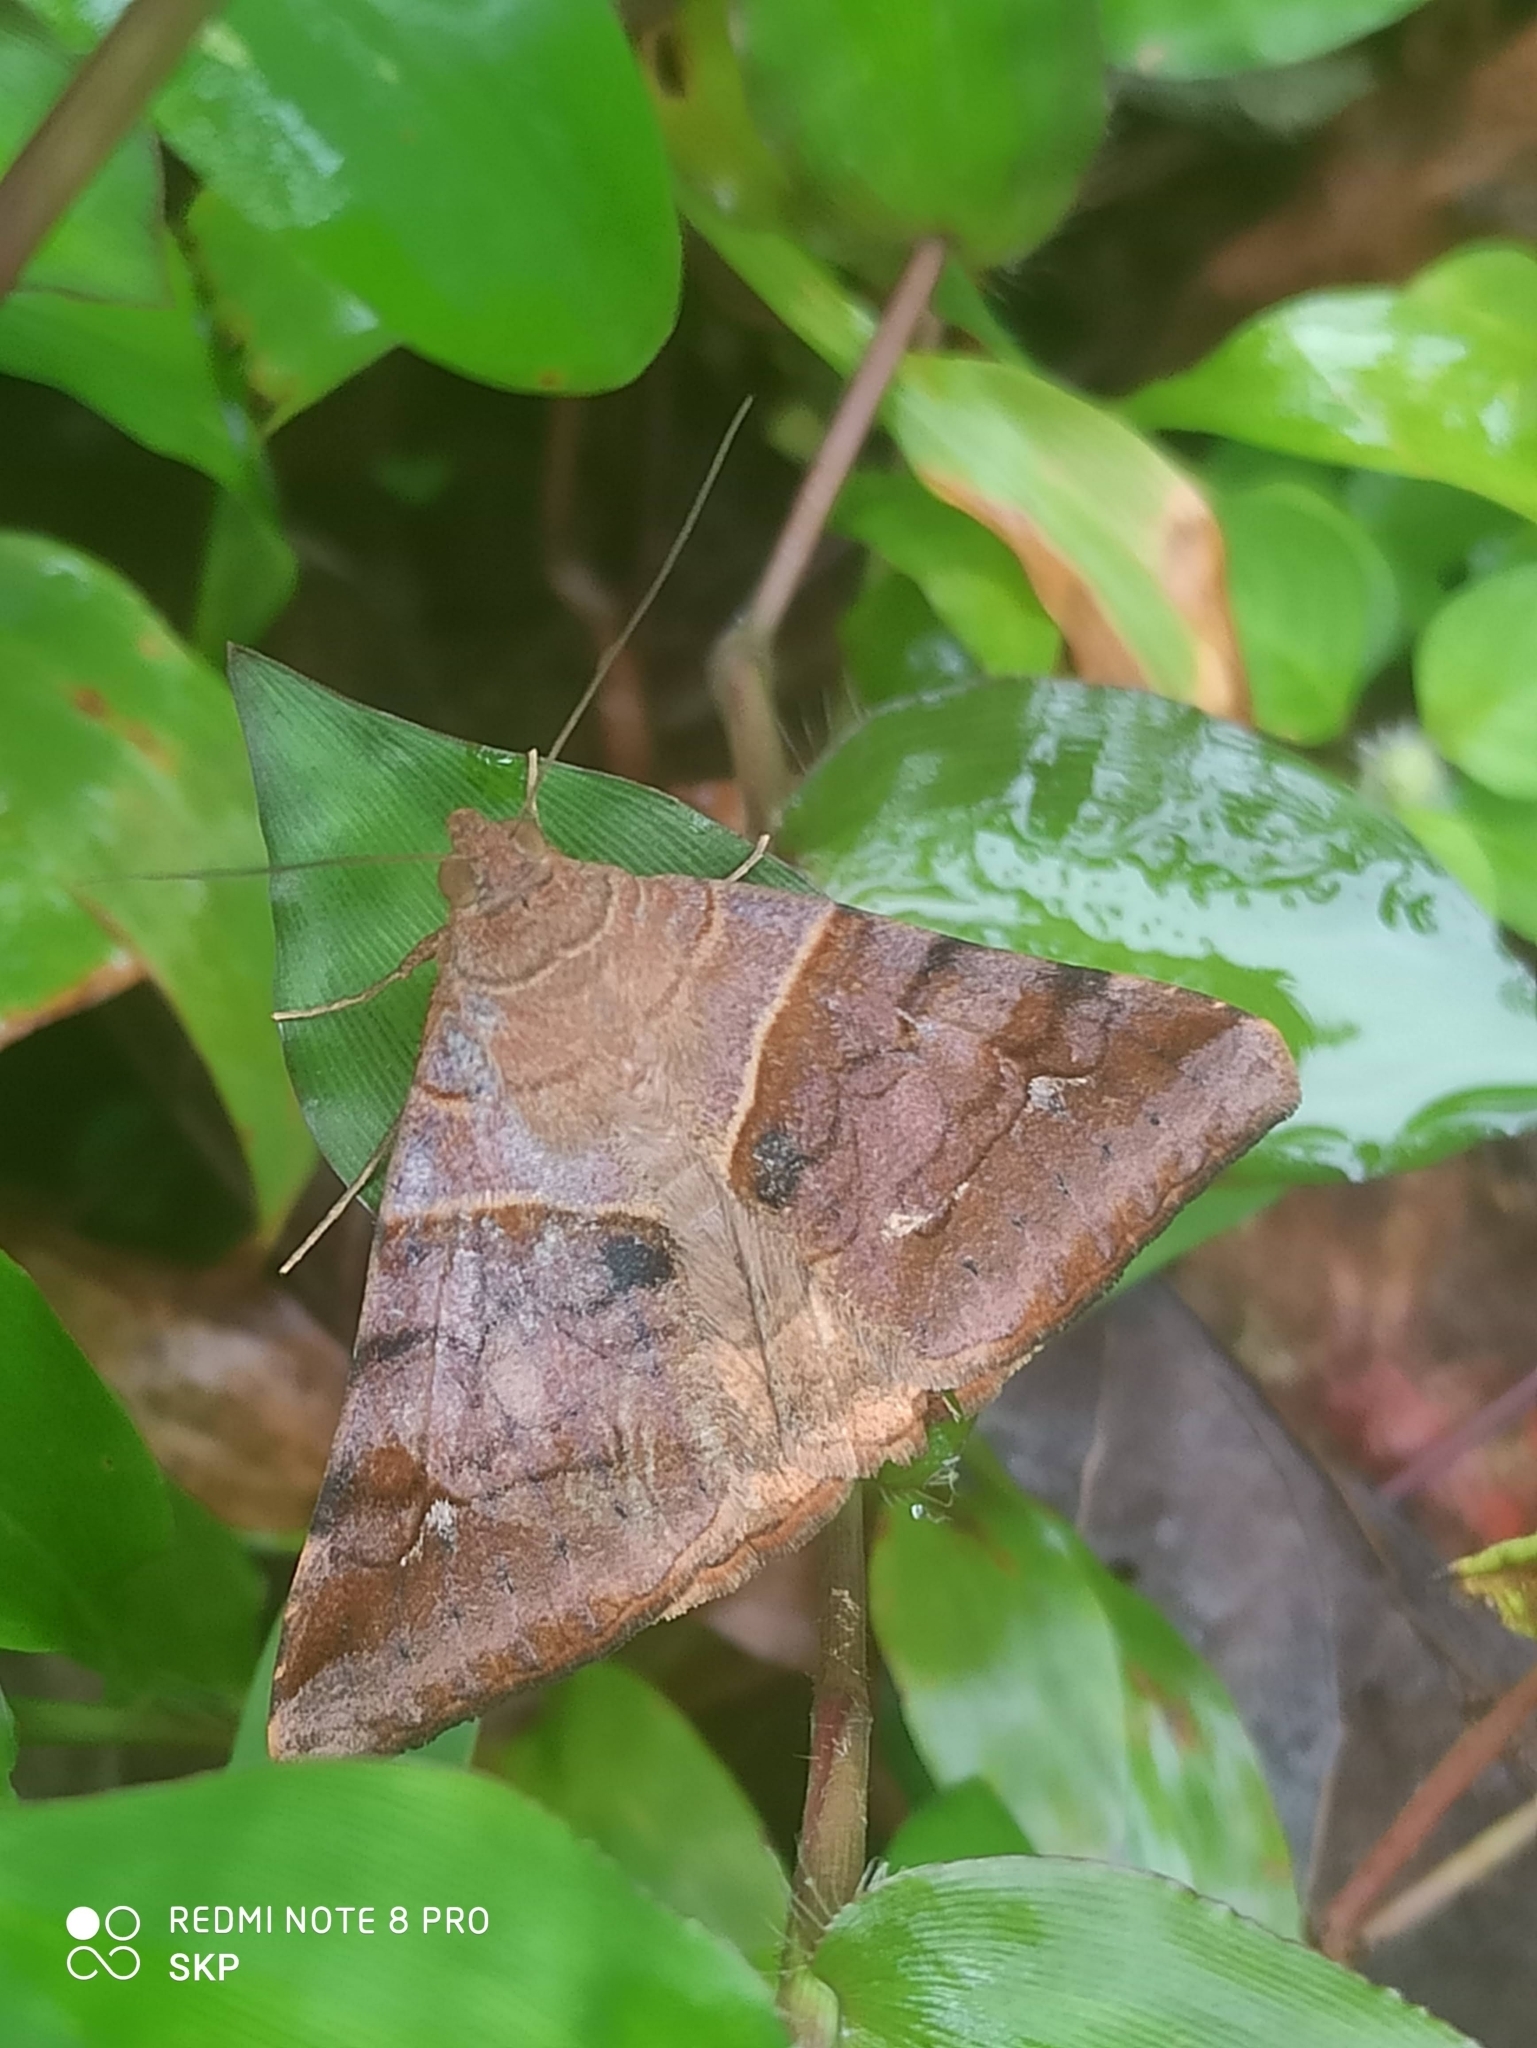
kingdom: Animalia
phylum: Arthropoda
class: Insecta
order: Lepidoptera
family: Erebidae
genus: Mocis
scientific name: Mocis undata
